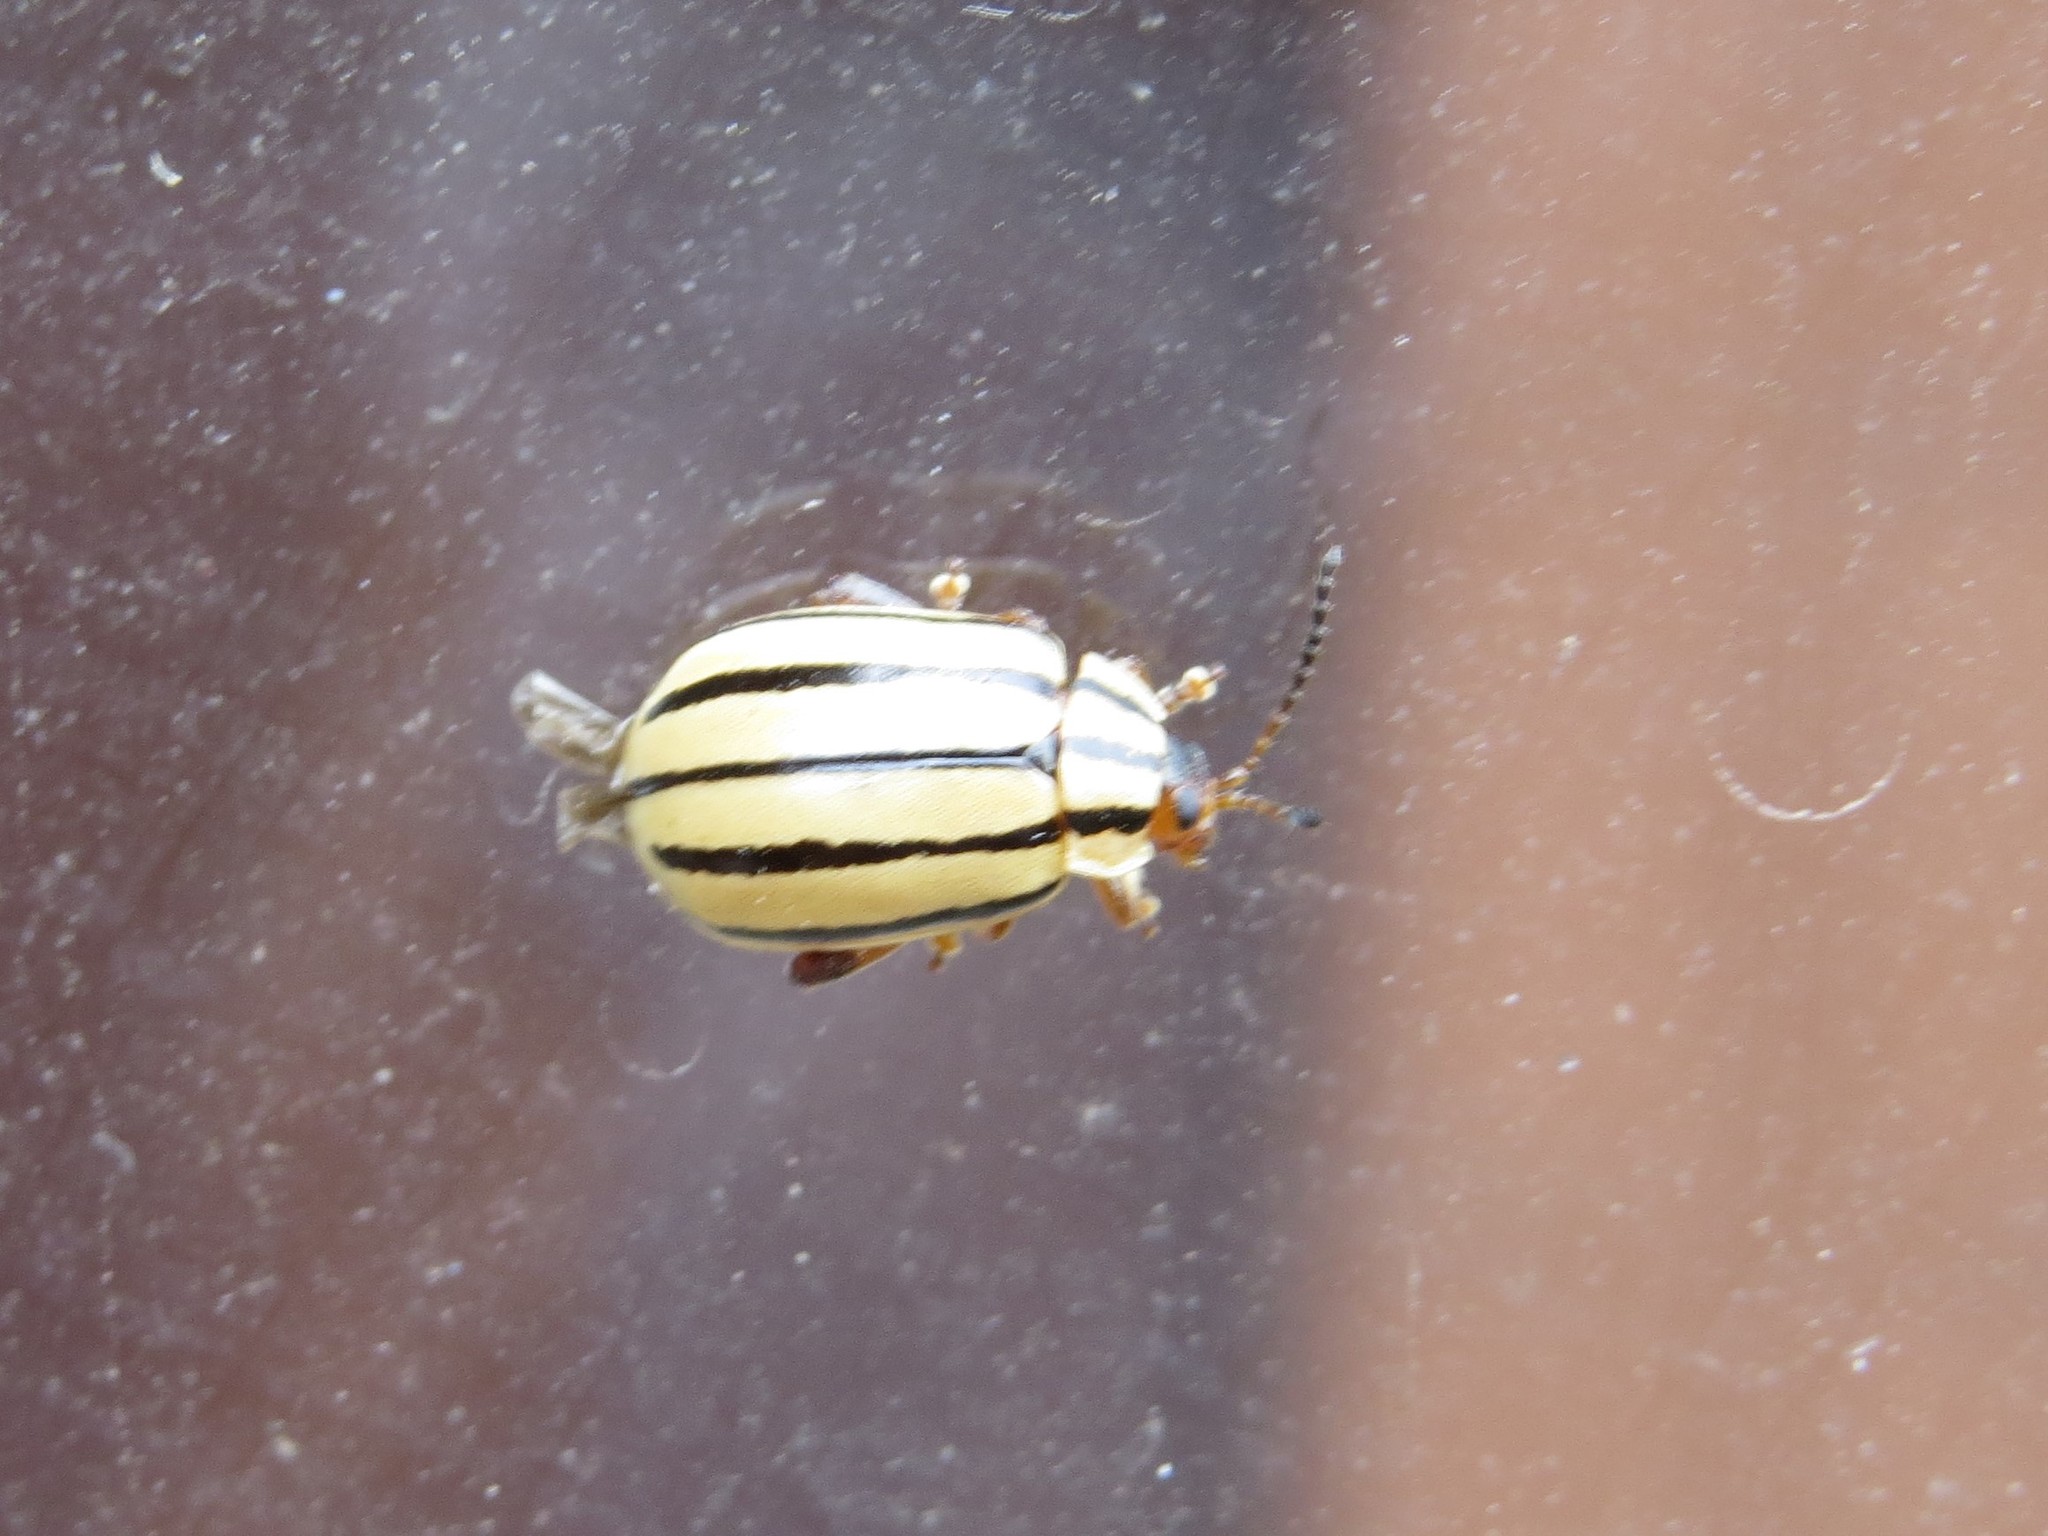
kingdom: Animalia
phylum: Arthropoda
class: Insecta
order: Coleoptera
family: Chrysomelidae
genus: Kuschelina
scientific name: Kuschelina
